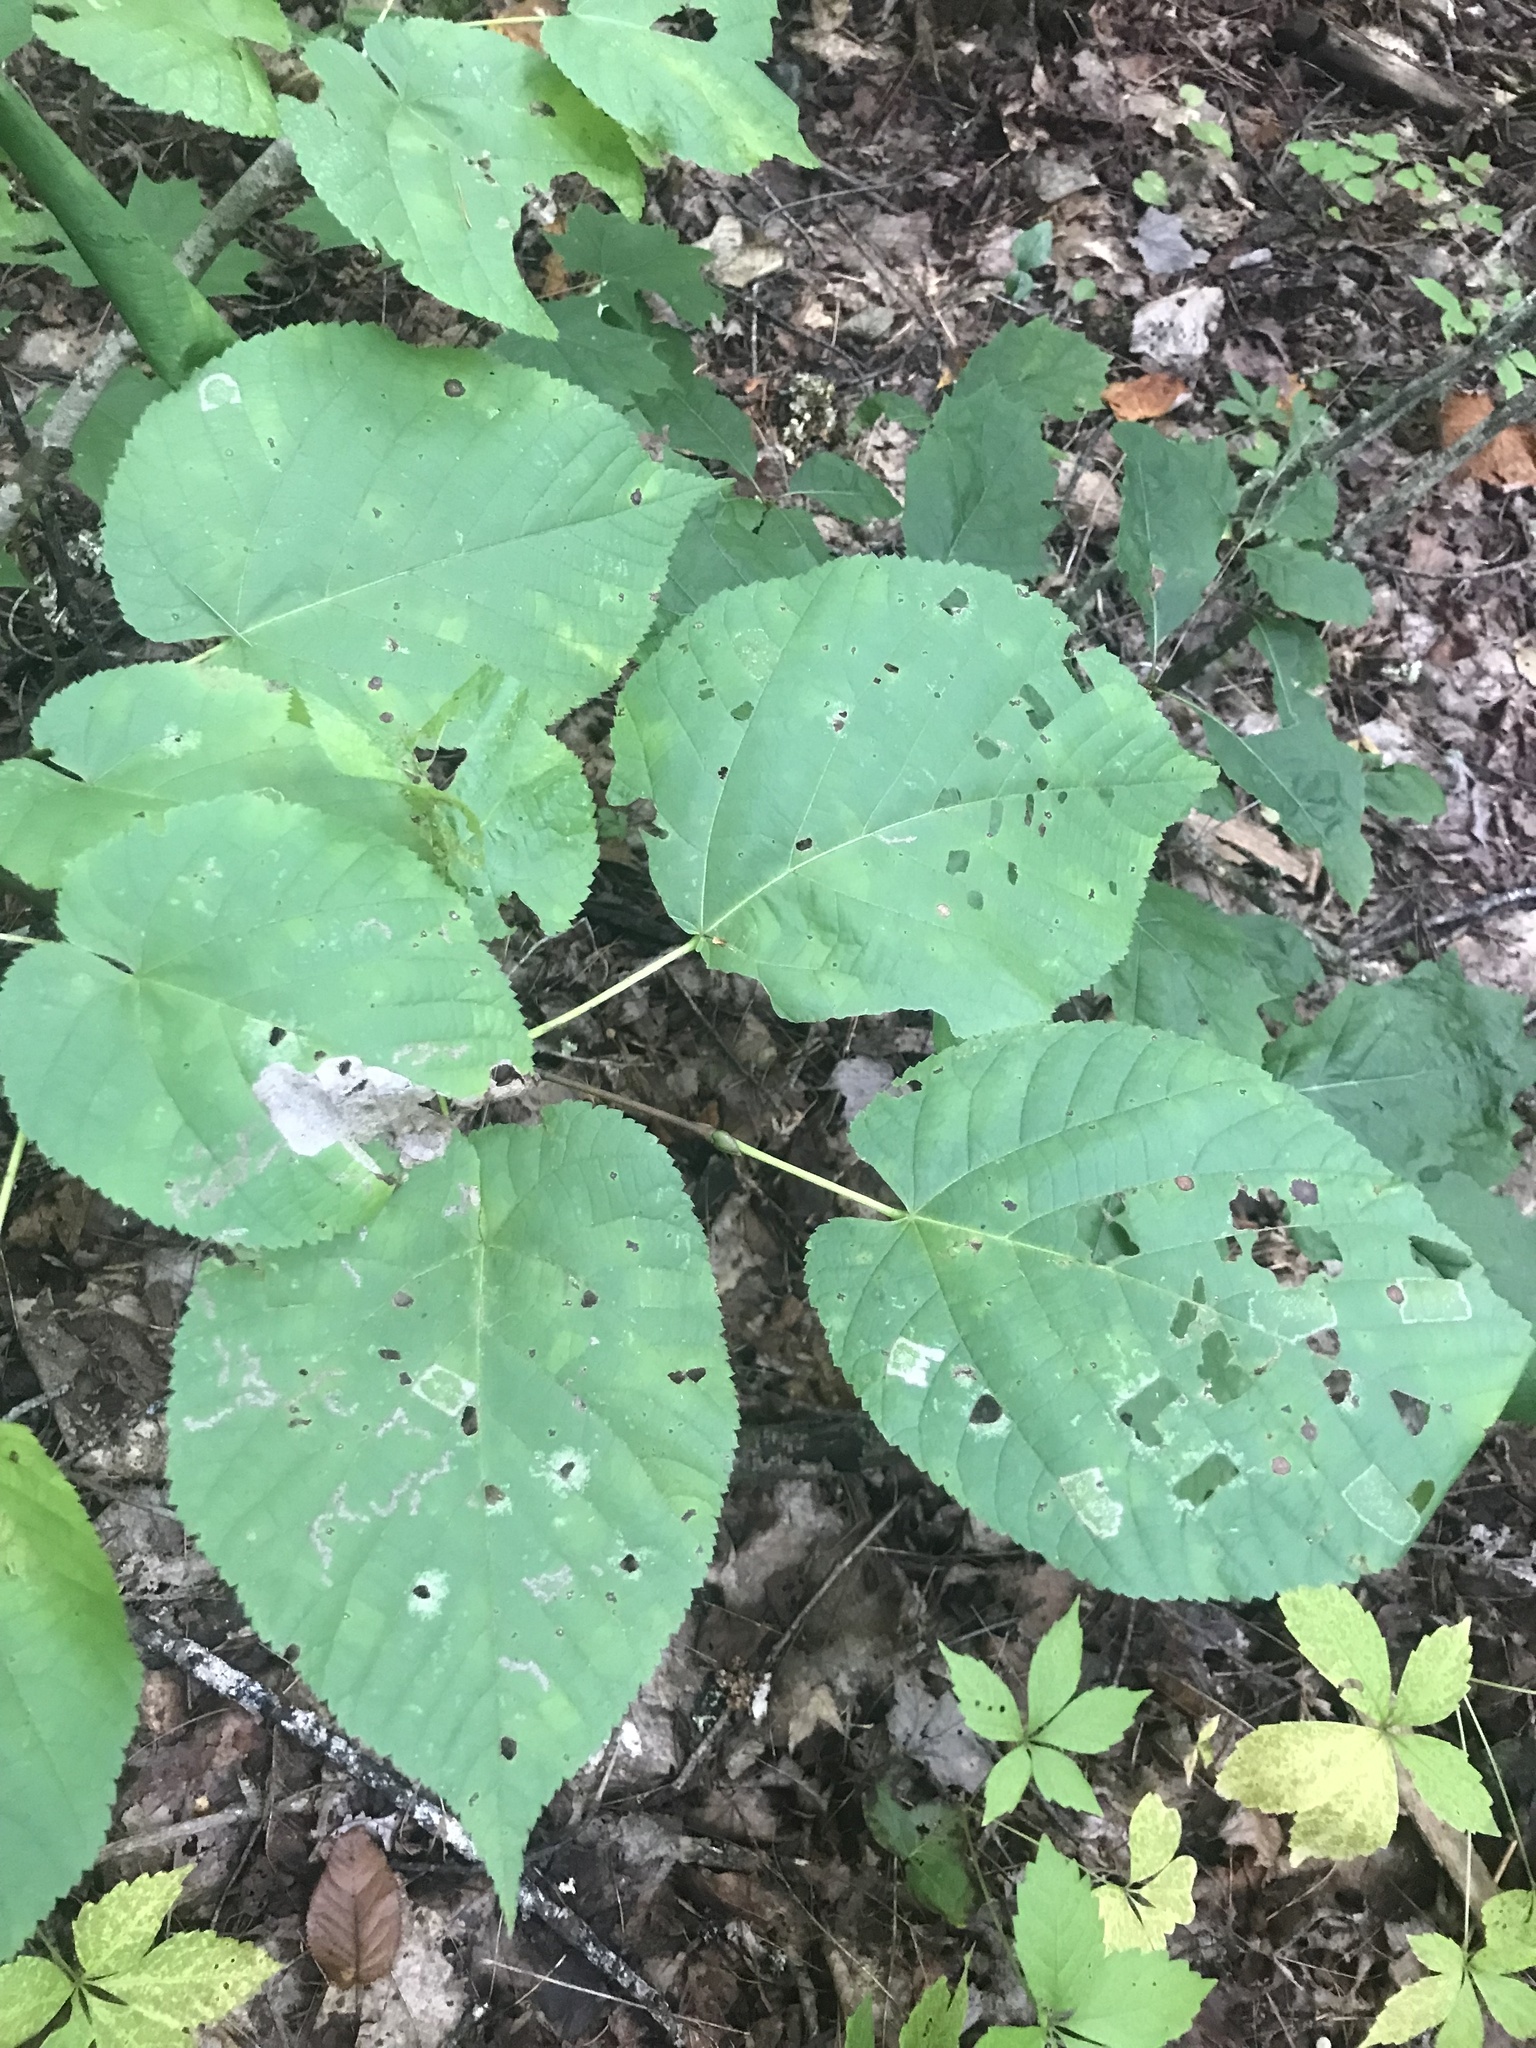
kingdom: Plantae
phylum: Tracheophyta
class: Magnoliopsida
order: Malvales
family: Malvaceae
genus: Tilia
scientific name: Tilia americana
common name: Basswood
